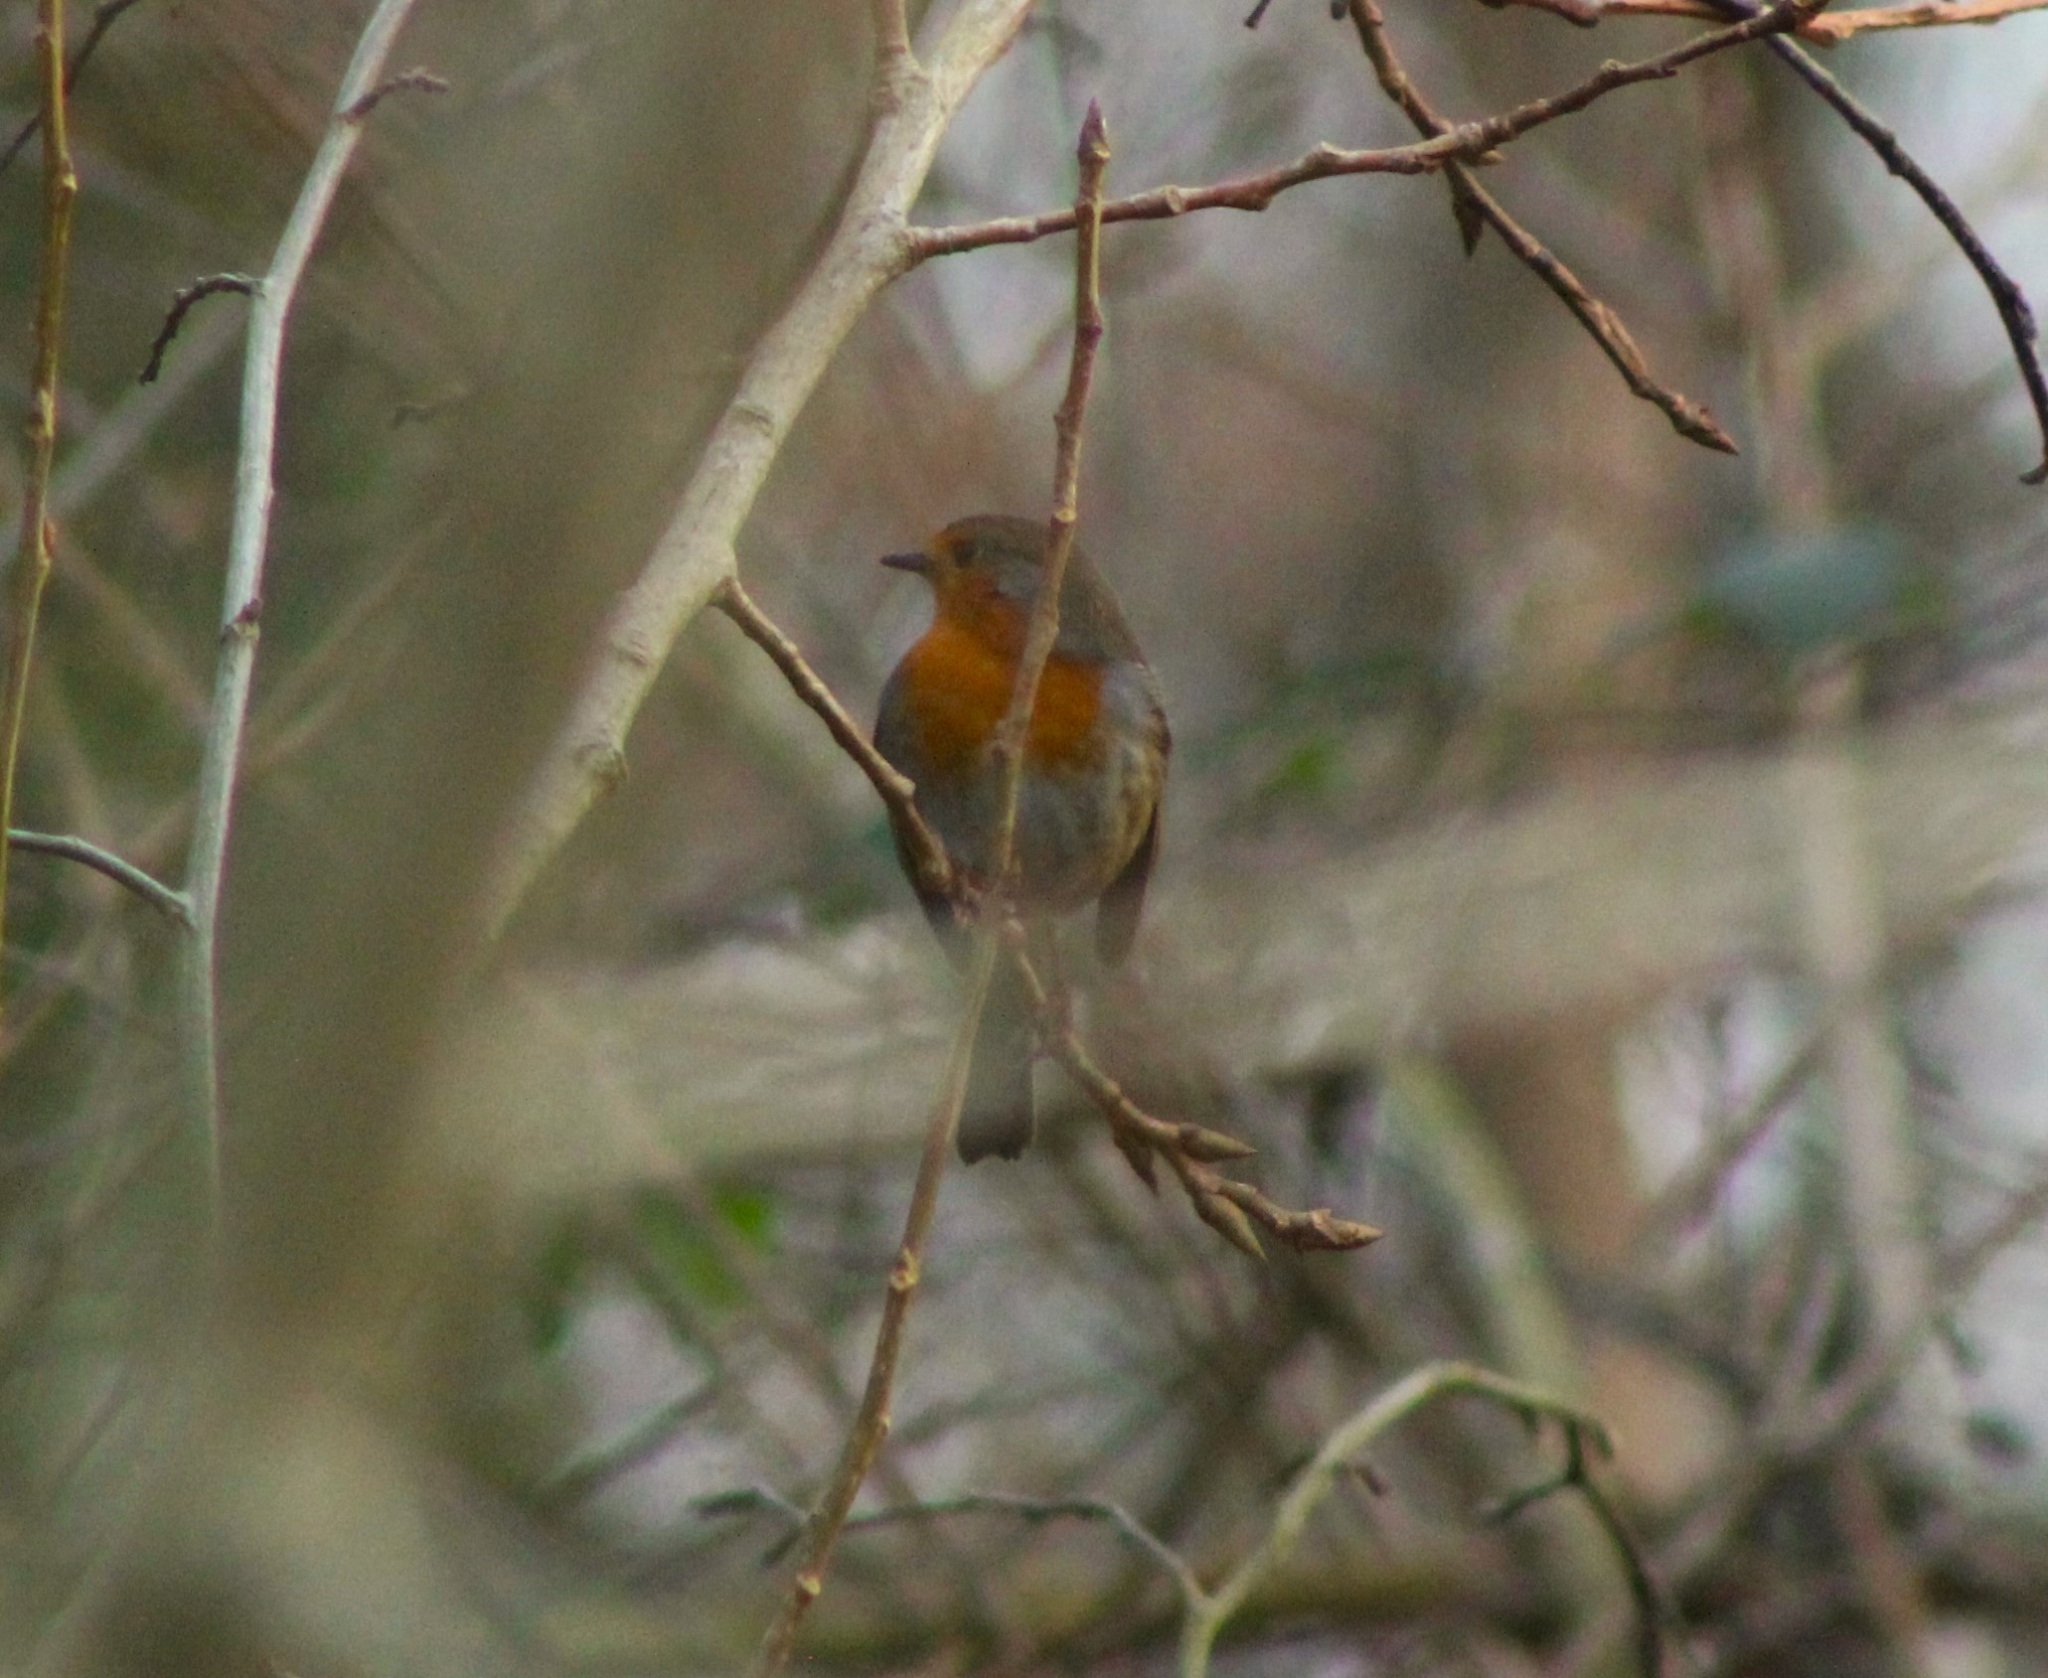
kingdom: Animalia
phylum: Chordata
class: Aves
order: Passeriformes
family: Muscicapidae
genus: Erithacus
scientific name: Erithacus rubecula
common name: European robin
